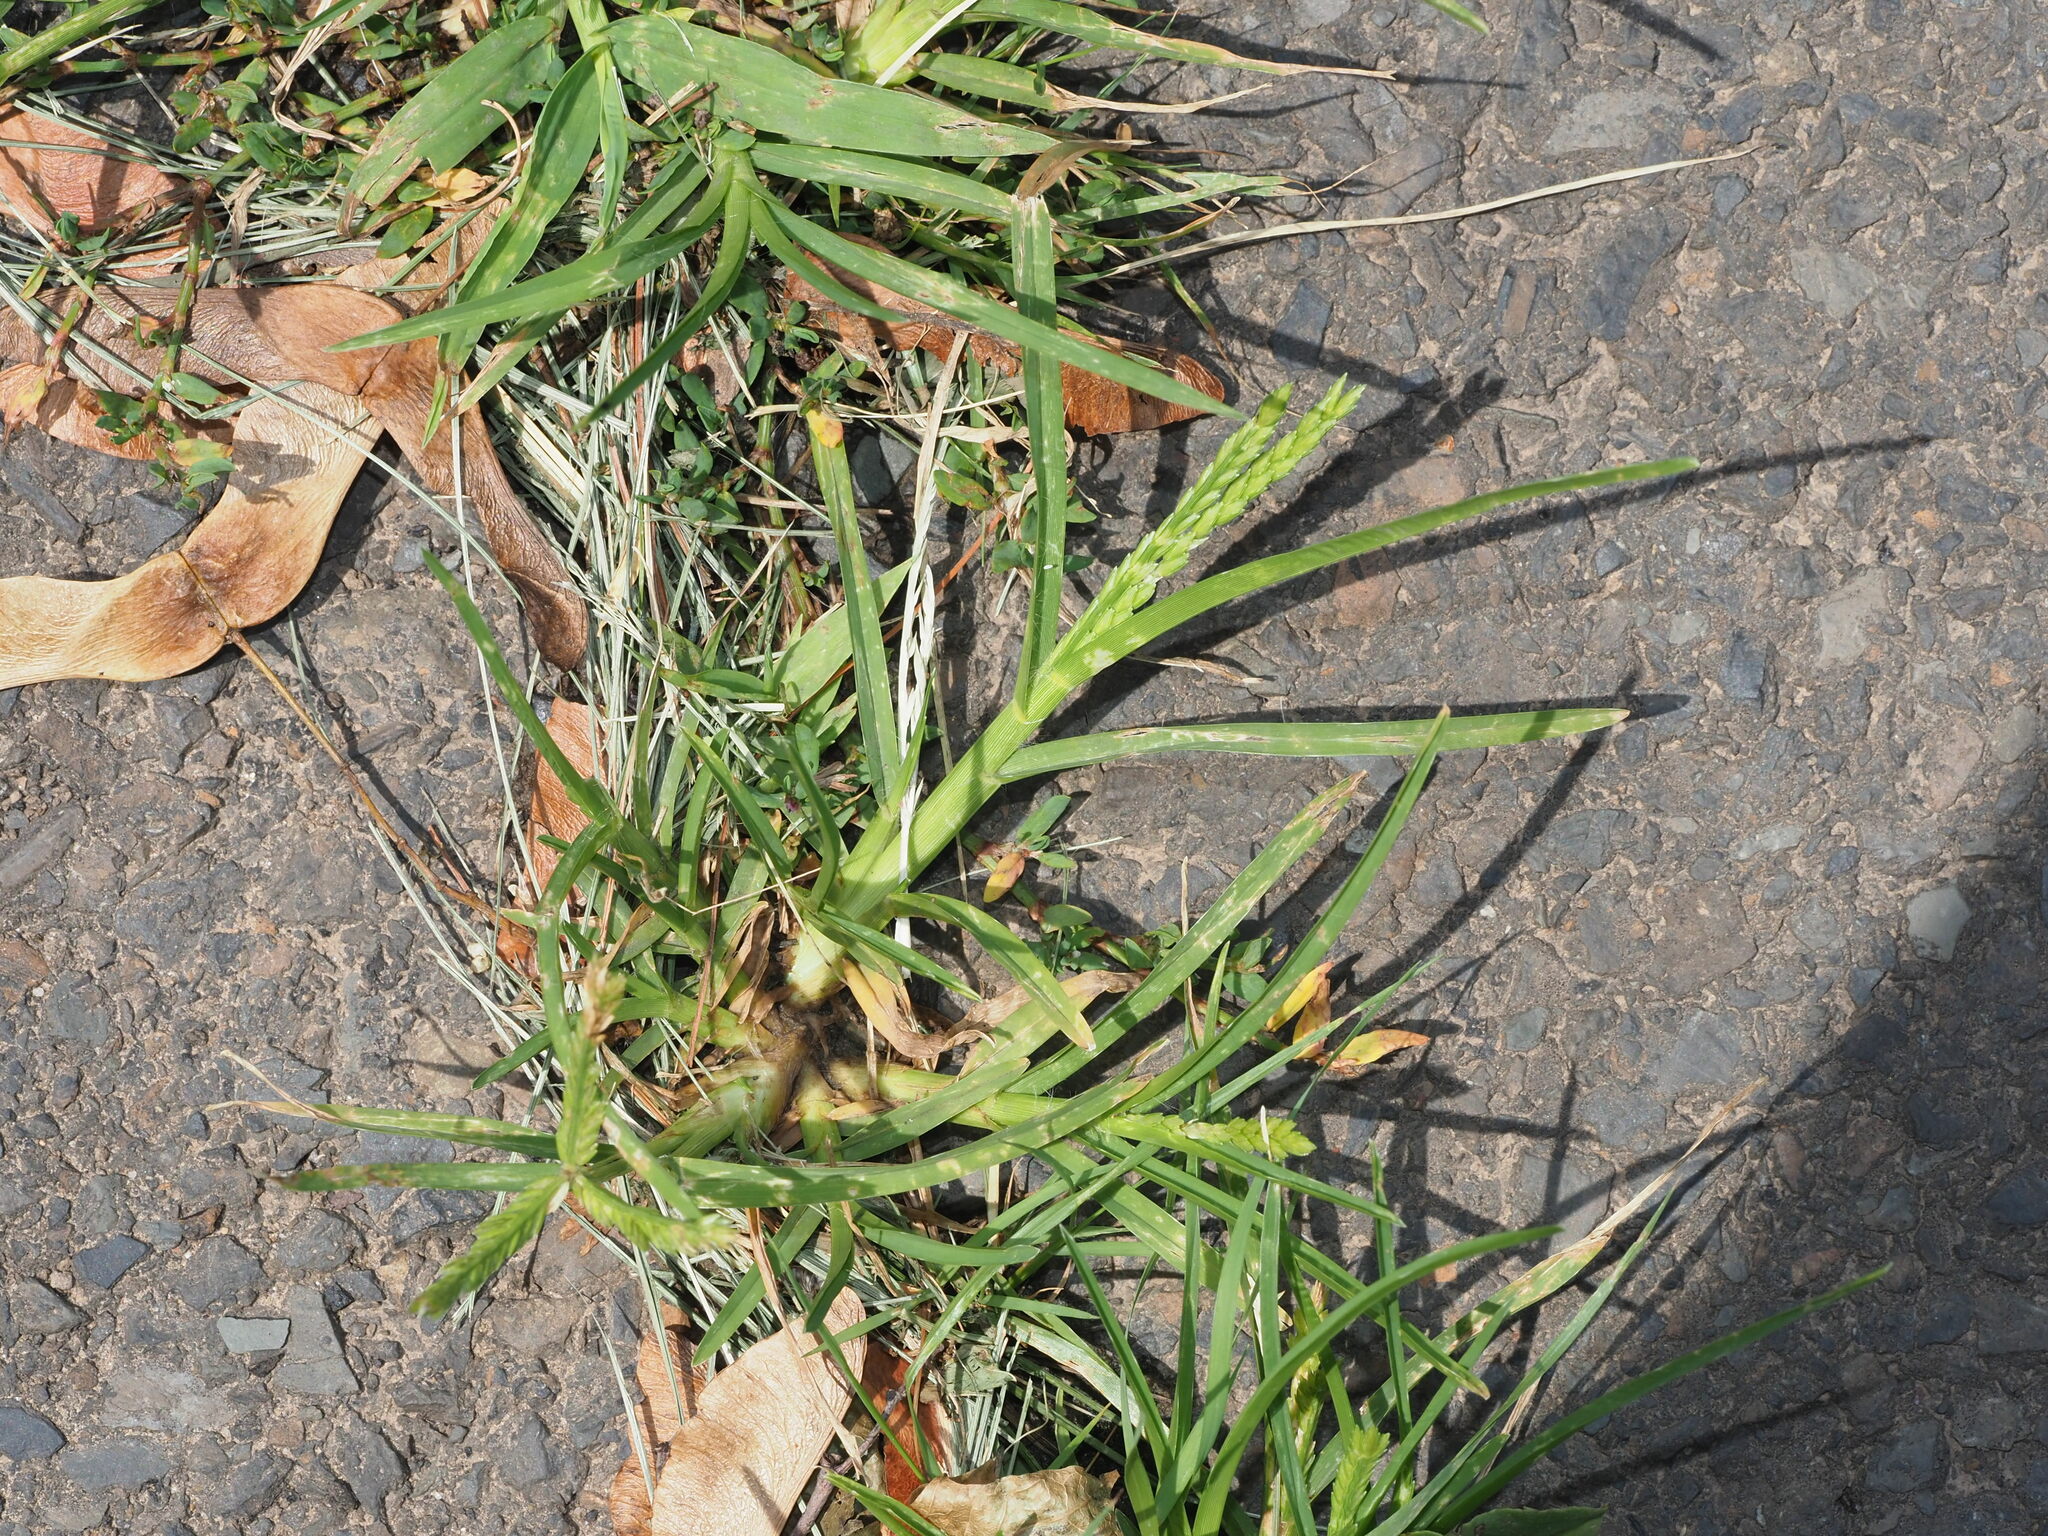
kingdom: Plantae
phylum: Tracheophyta
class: Liliopsida
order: Poales
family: Poaceae
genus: Eleusine
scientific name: Eleusine indica
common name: Yard-grass
